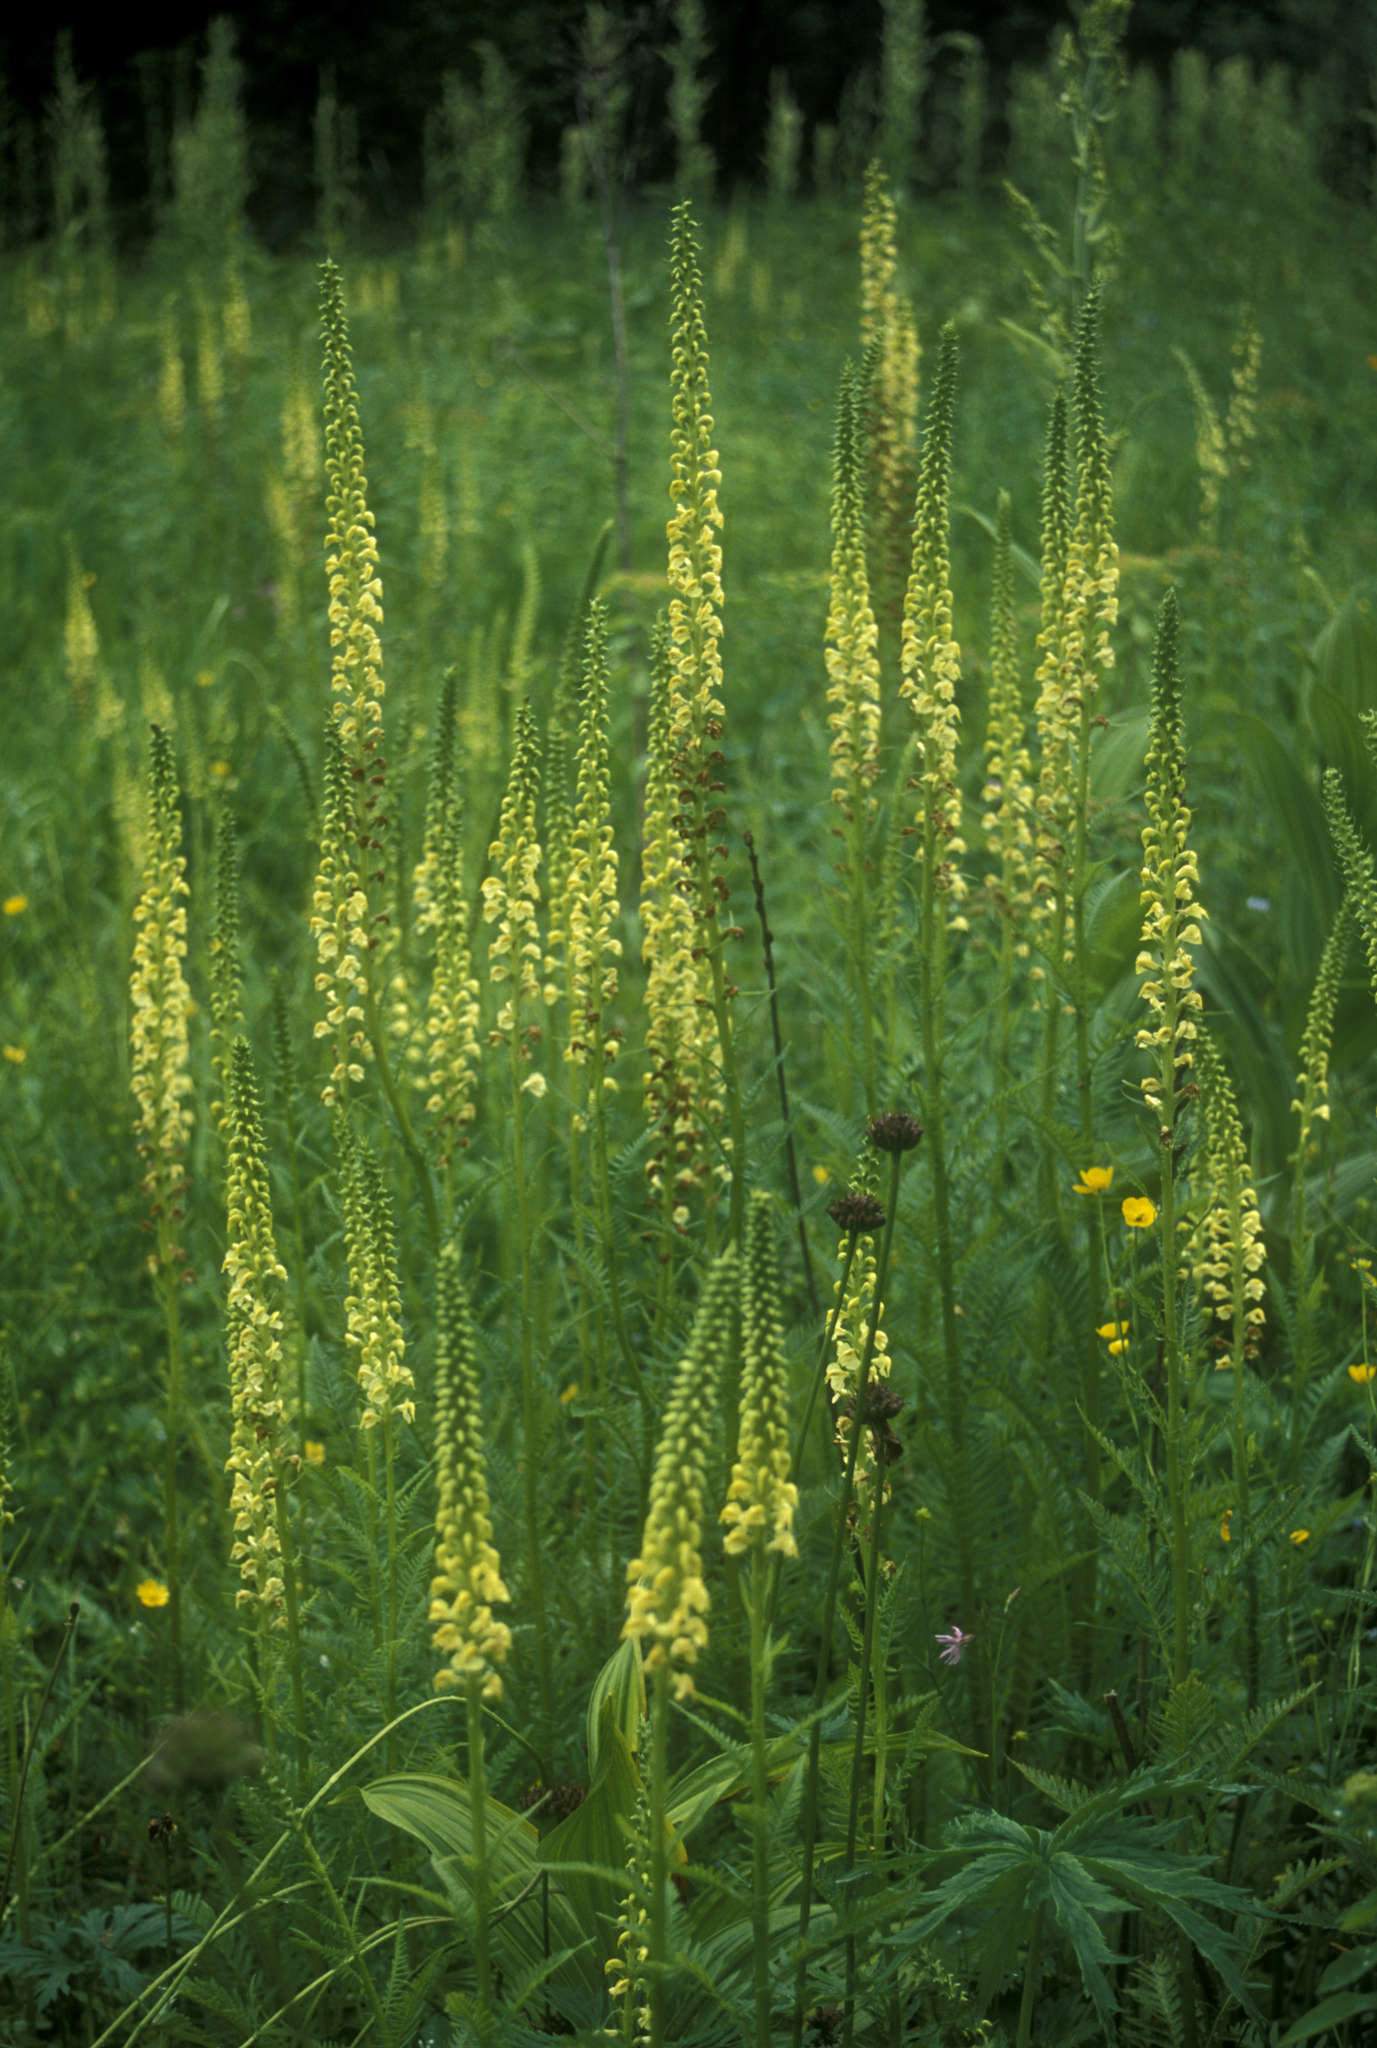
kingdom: Plantae
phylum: Tracheophyta
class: Magnoliopsida
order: Lamiales
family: Orobanchaceae
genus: Pedicularis
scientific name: Pedicularis incarnata
